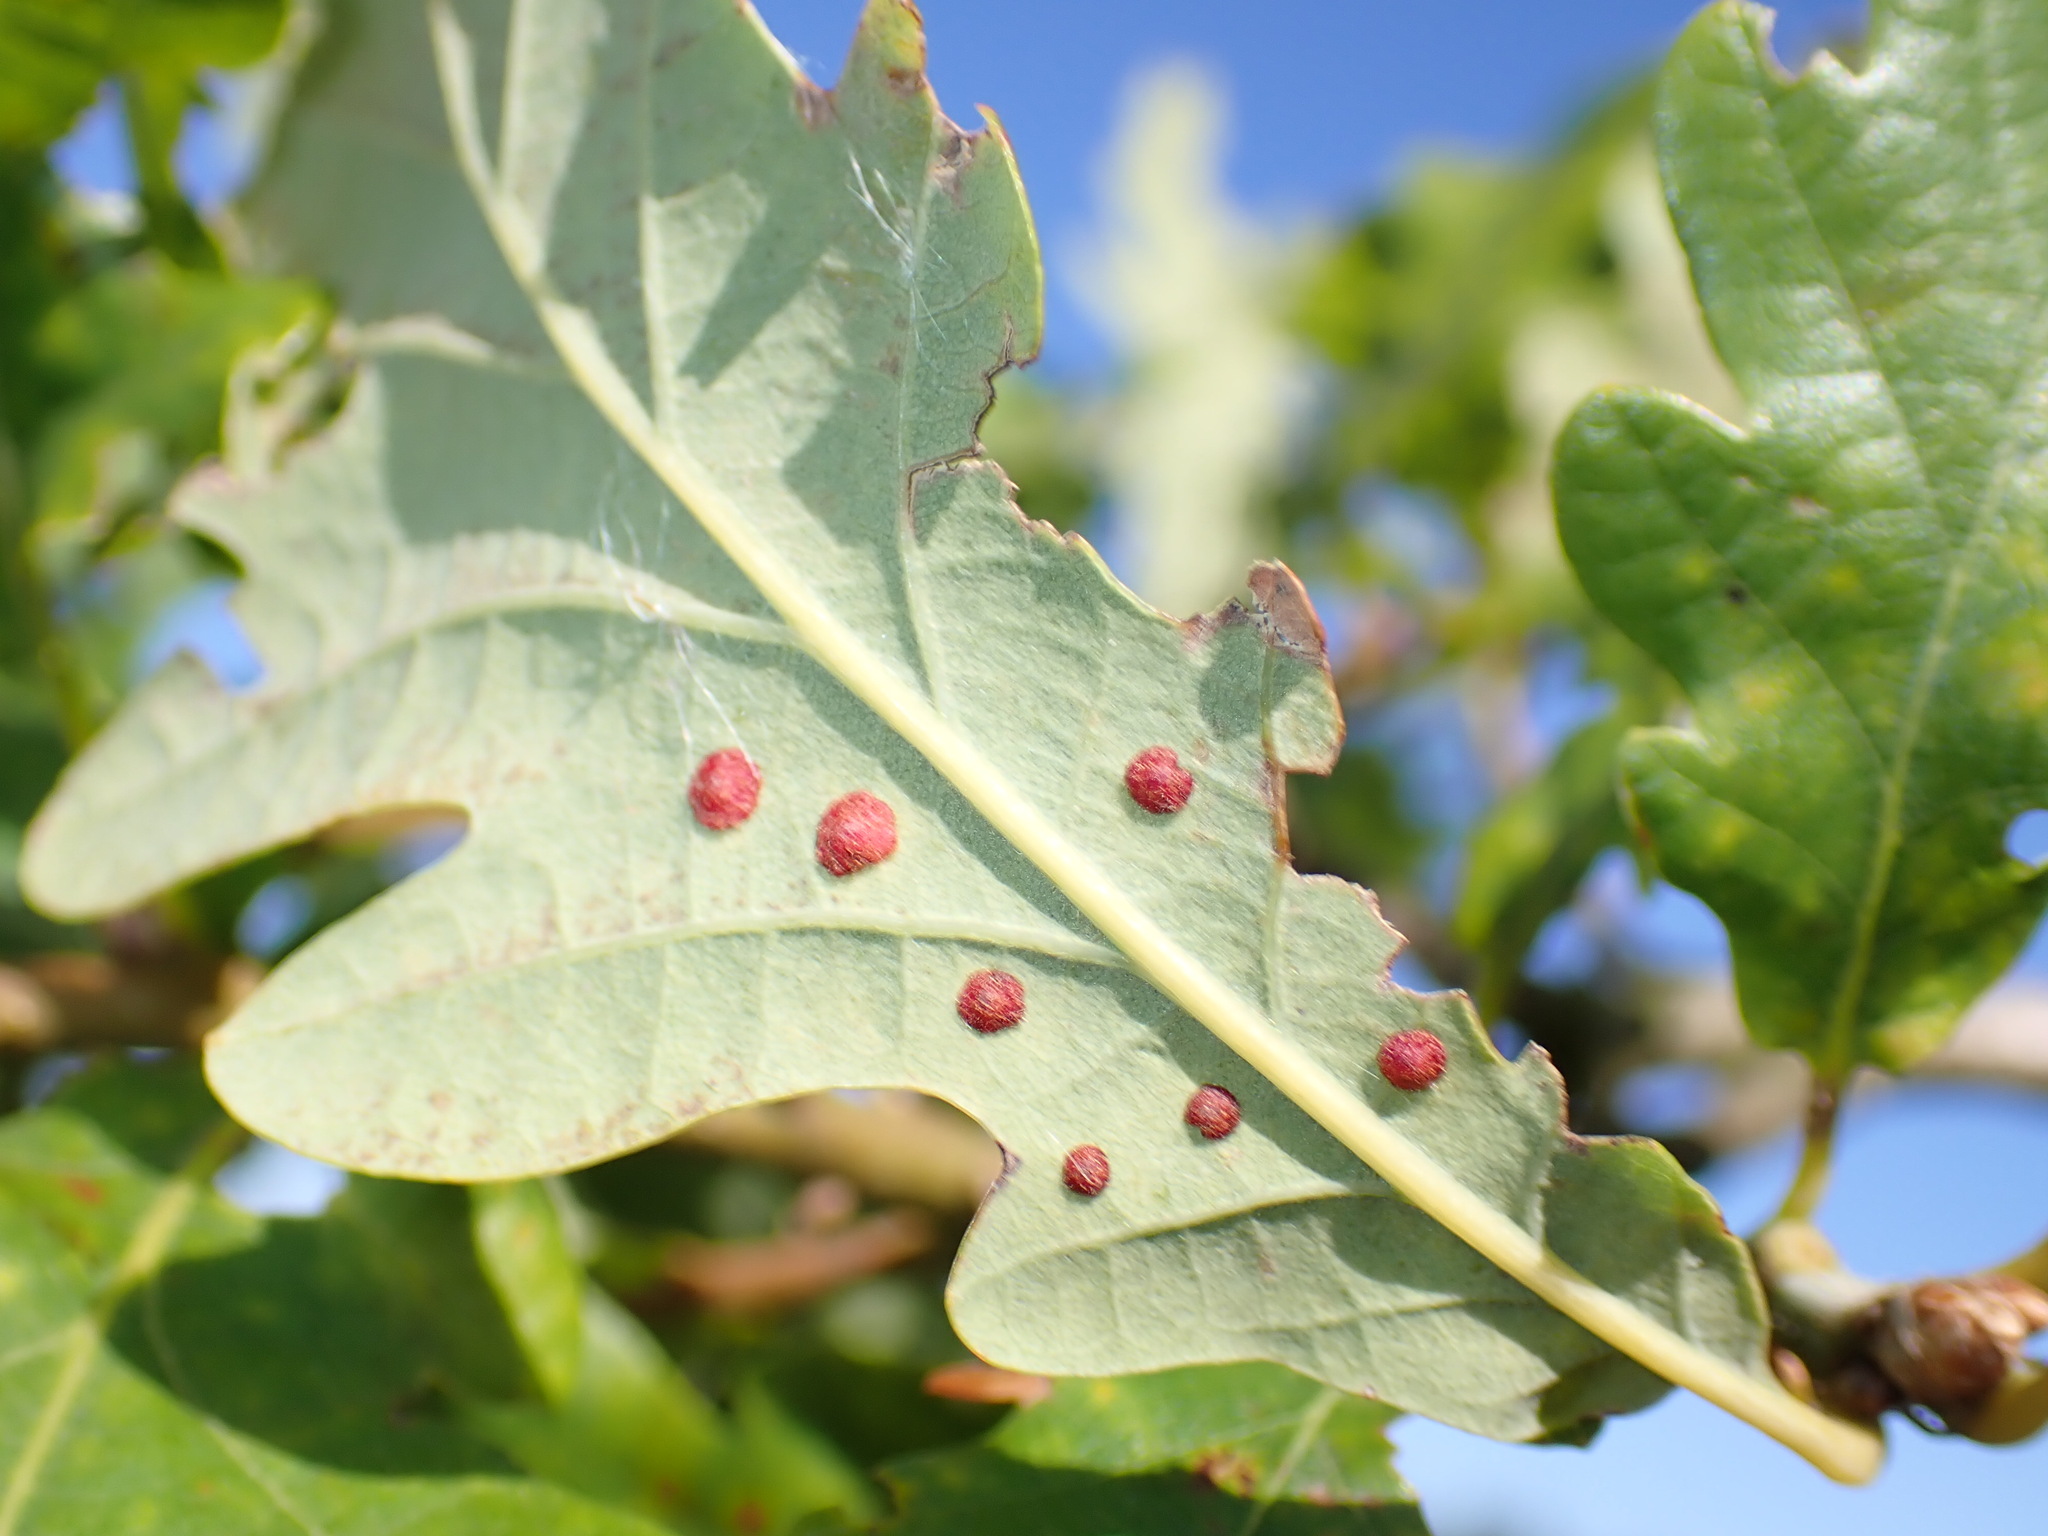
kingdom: Animalia
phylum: Arthropoda
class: Insecta
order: Hymenoptera
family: Cynipidae
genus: Neuroterus
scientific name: Neuroterus quercusbaccarum
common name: Common spangle gall
